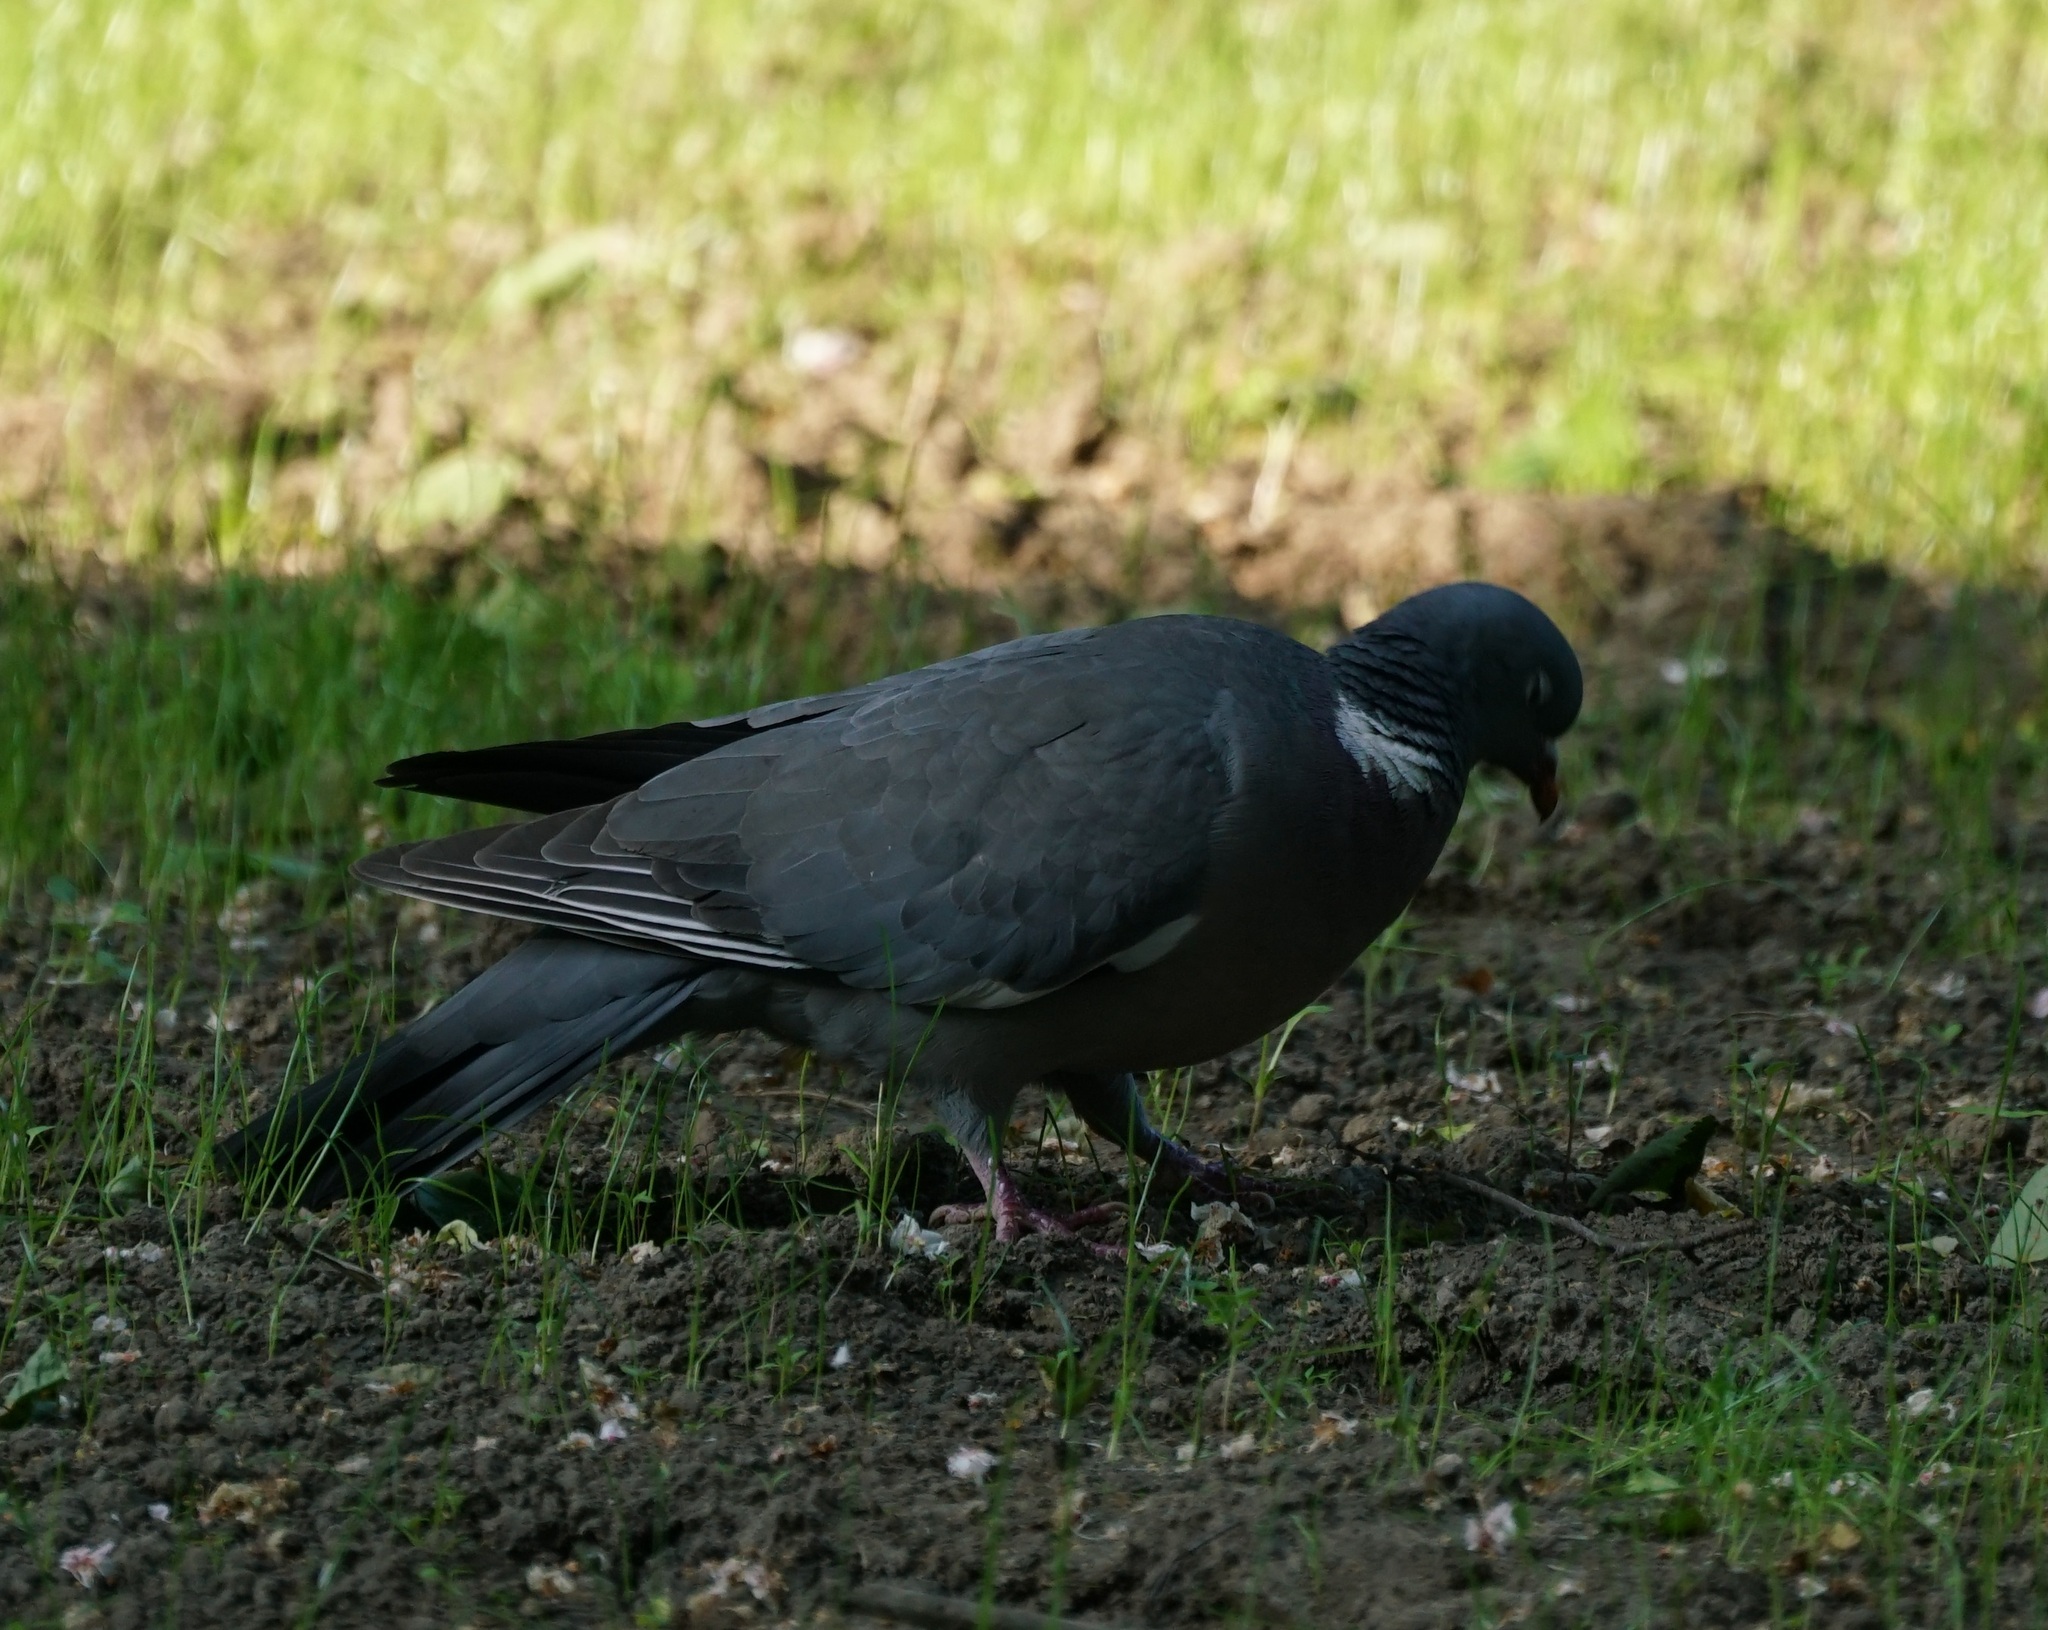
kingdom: Animalia
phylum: Chordata
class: Aves
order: Columbiformes
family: Columbidae
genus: Columba
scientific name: Columba palumbus
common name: Common wood pigeon
